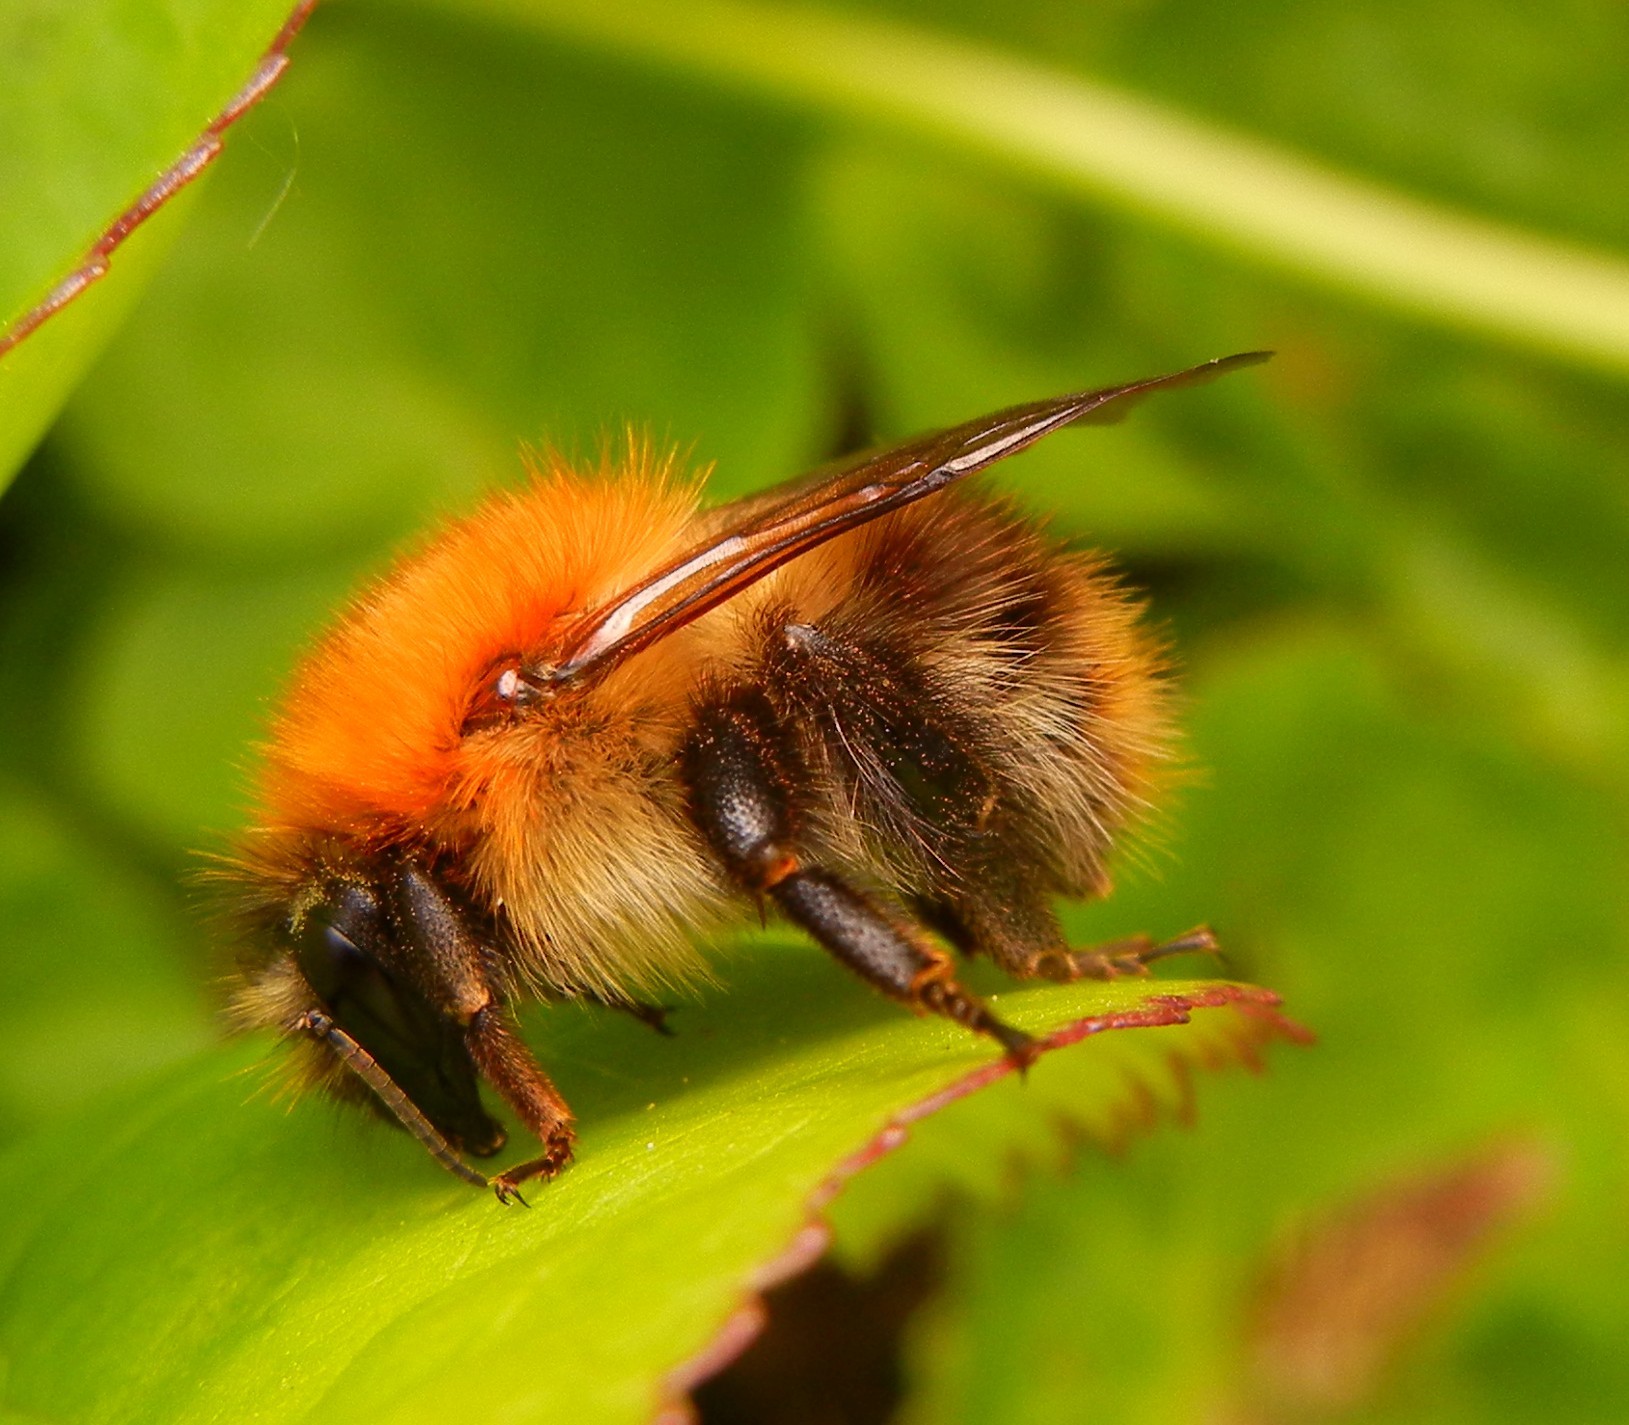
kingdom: Animalia
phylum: Arthropoda
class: Insecta
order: Hymenoptera
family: Apidae
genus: Bombus
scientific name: Bombus pascuorum
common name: Common carder bee
